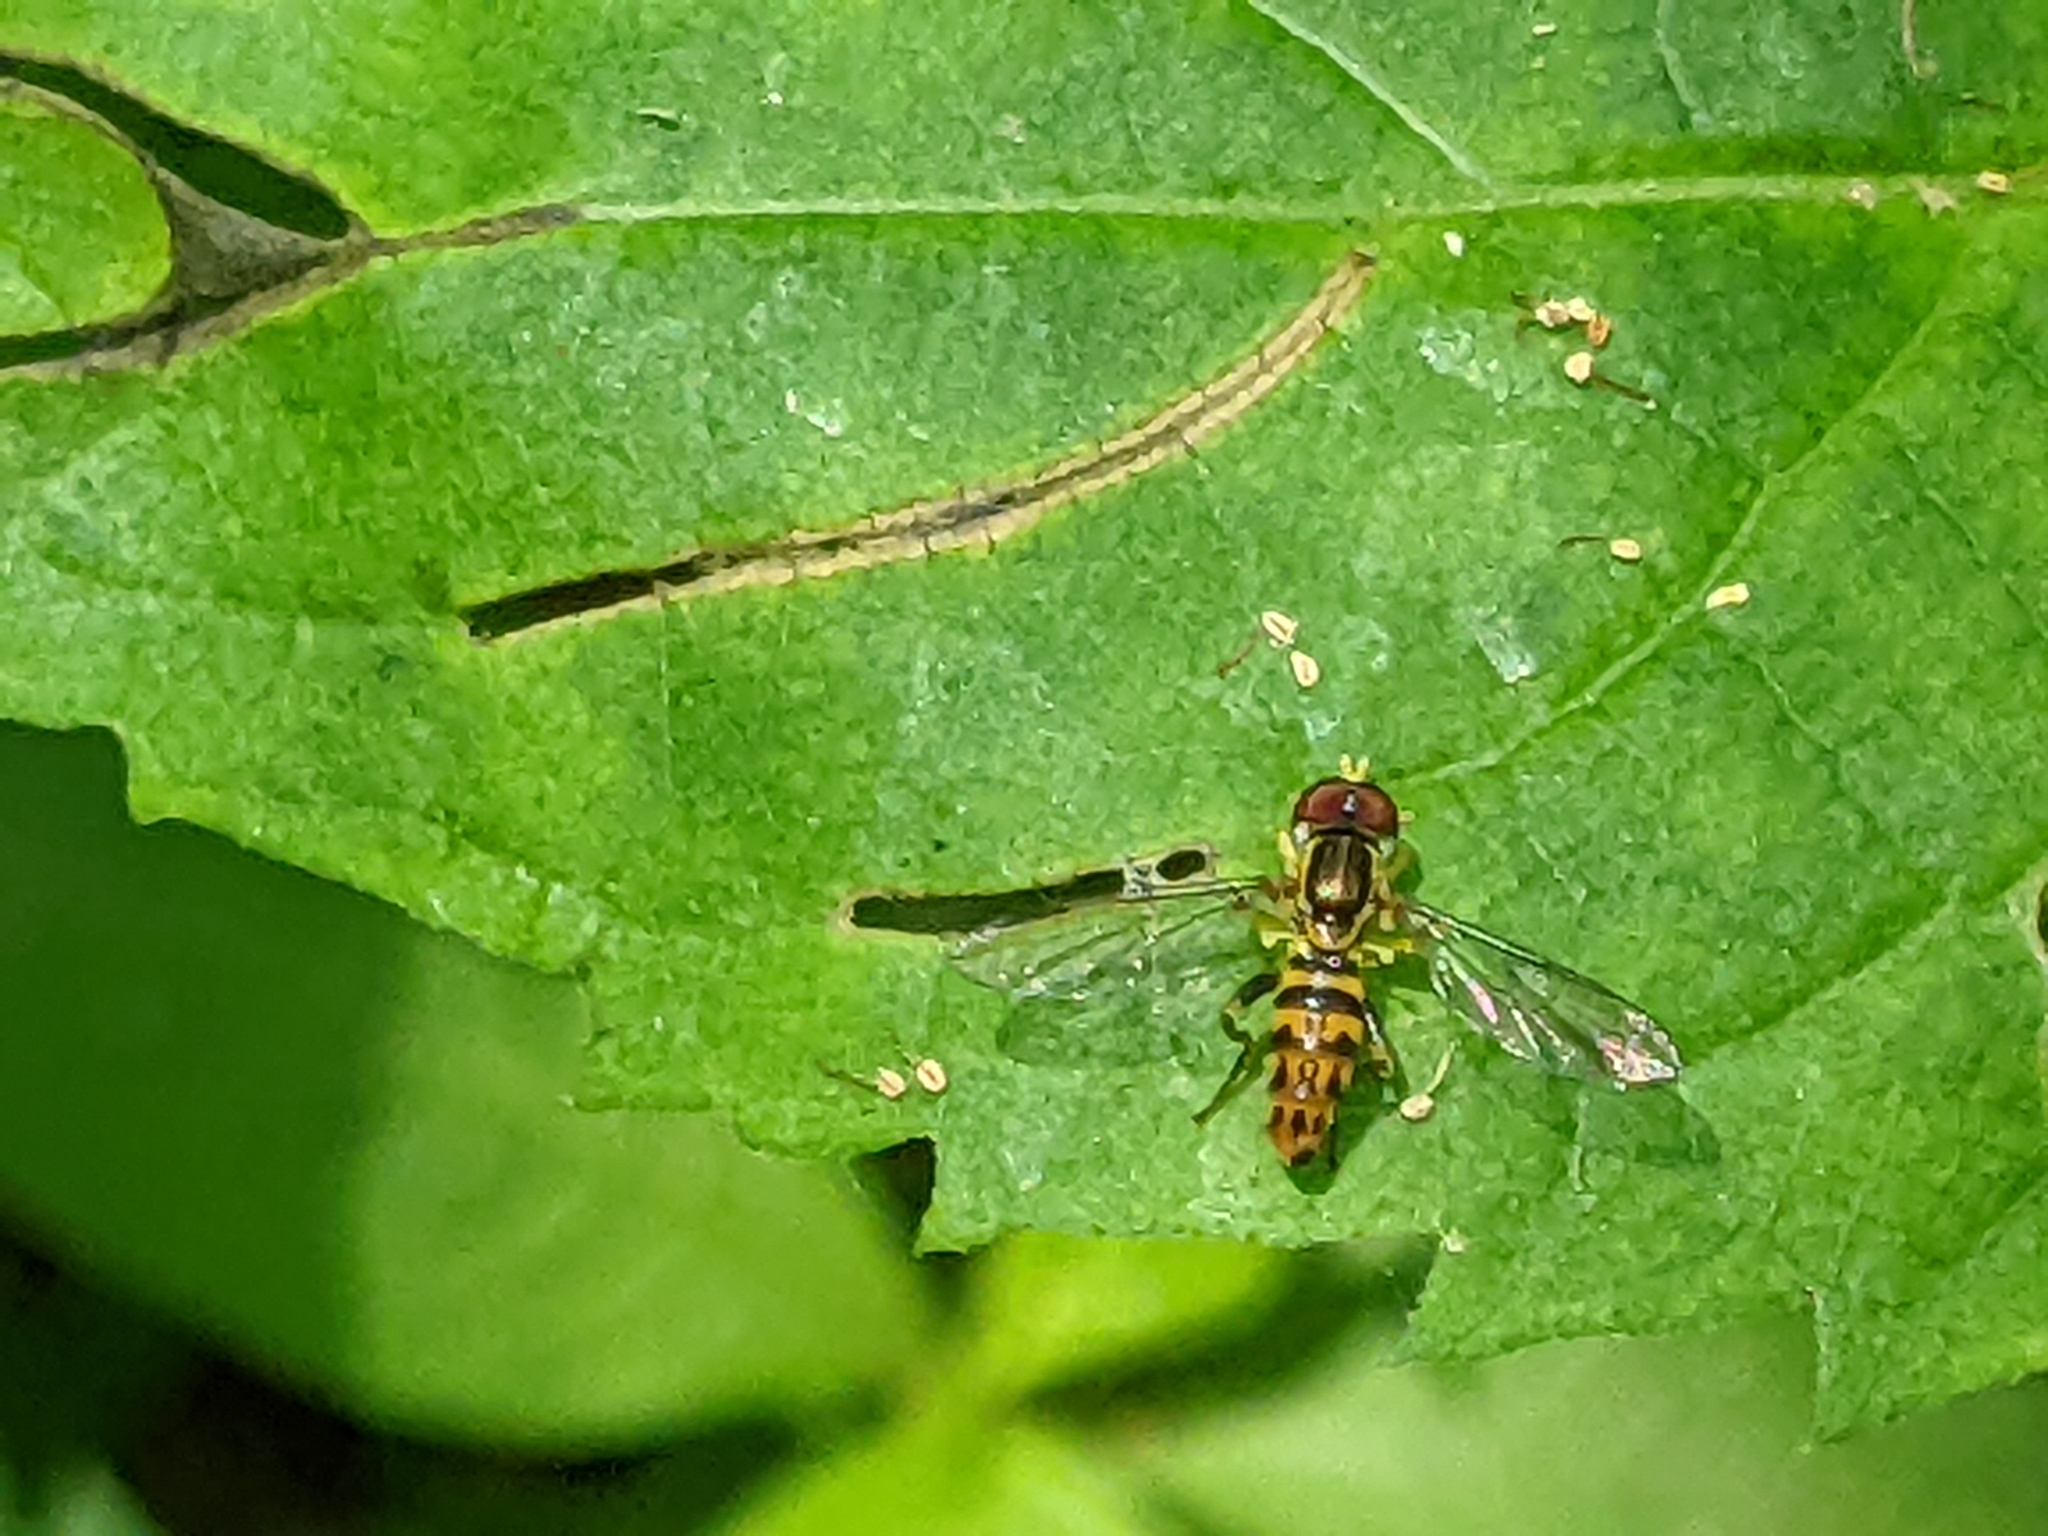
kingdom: Animalia
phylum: Arthropoda
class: Insecta
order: Diptera
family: Syrphidae
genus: Toxomerus
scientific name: Toxomerus geminatus
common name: Eastern calligrapher
